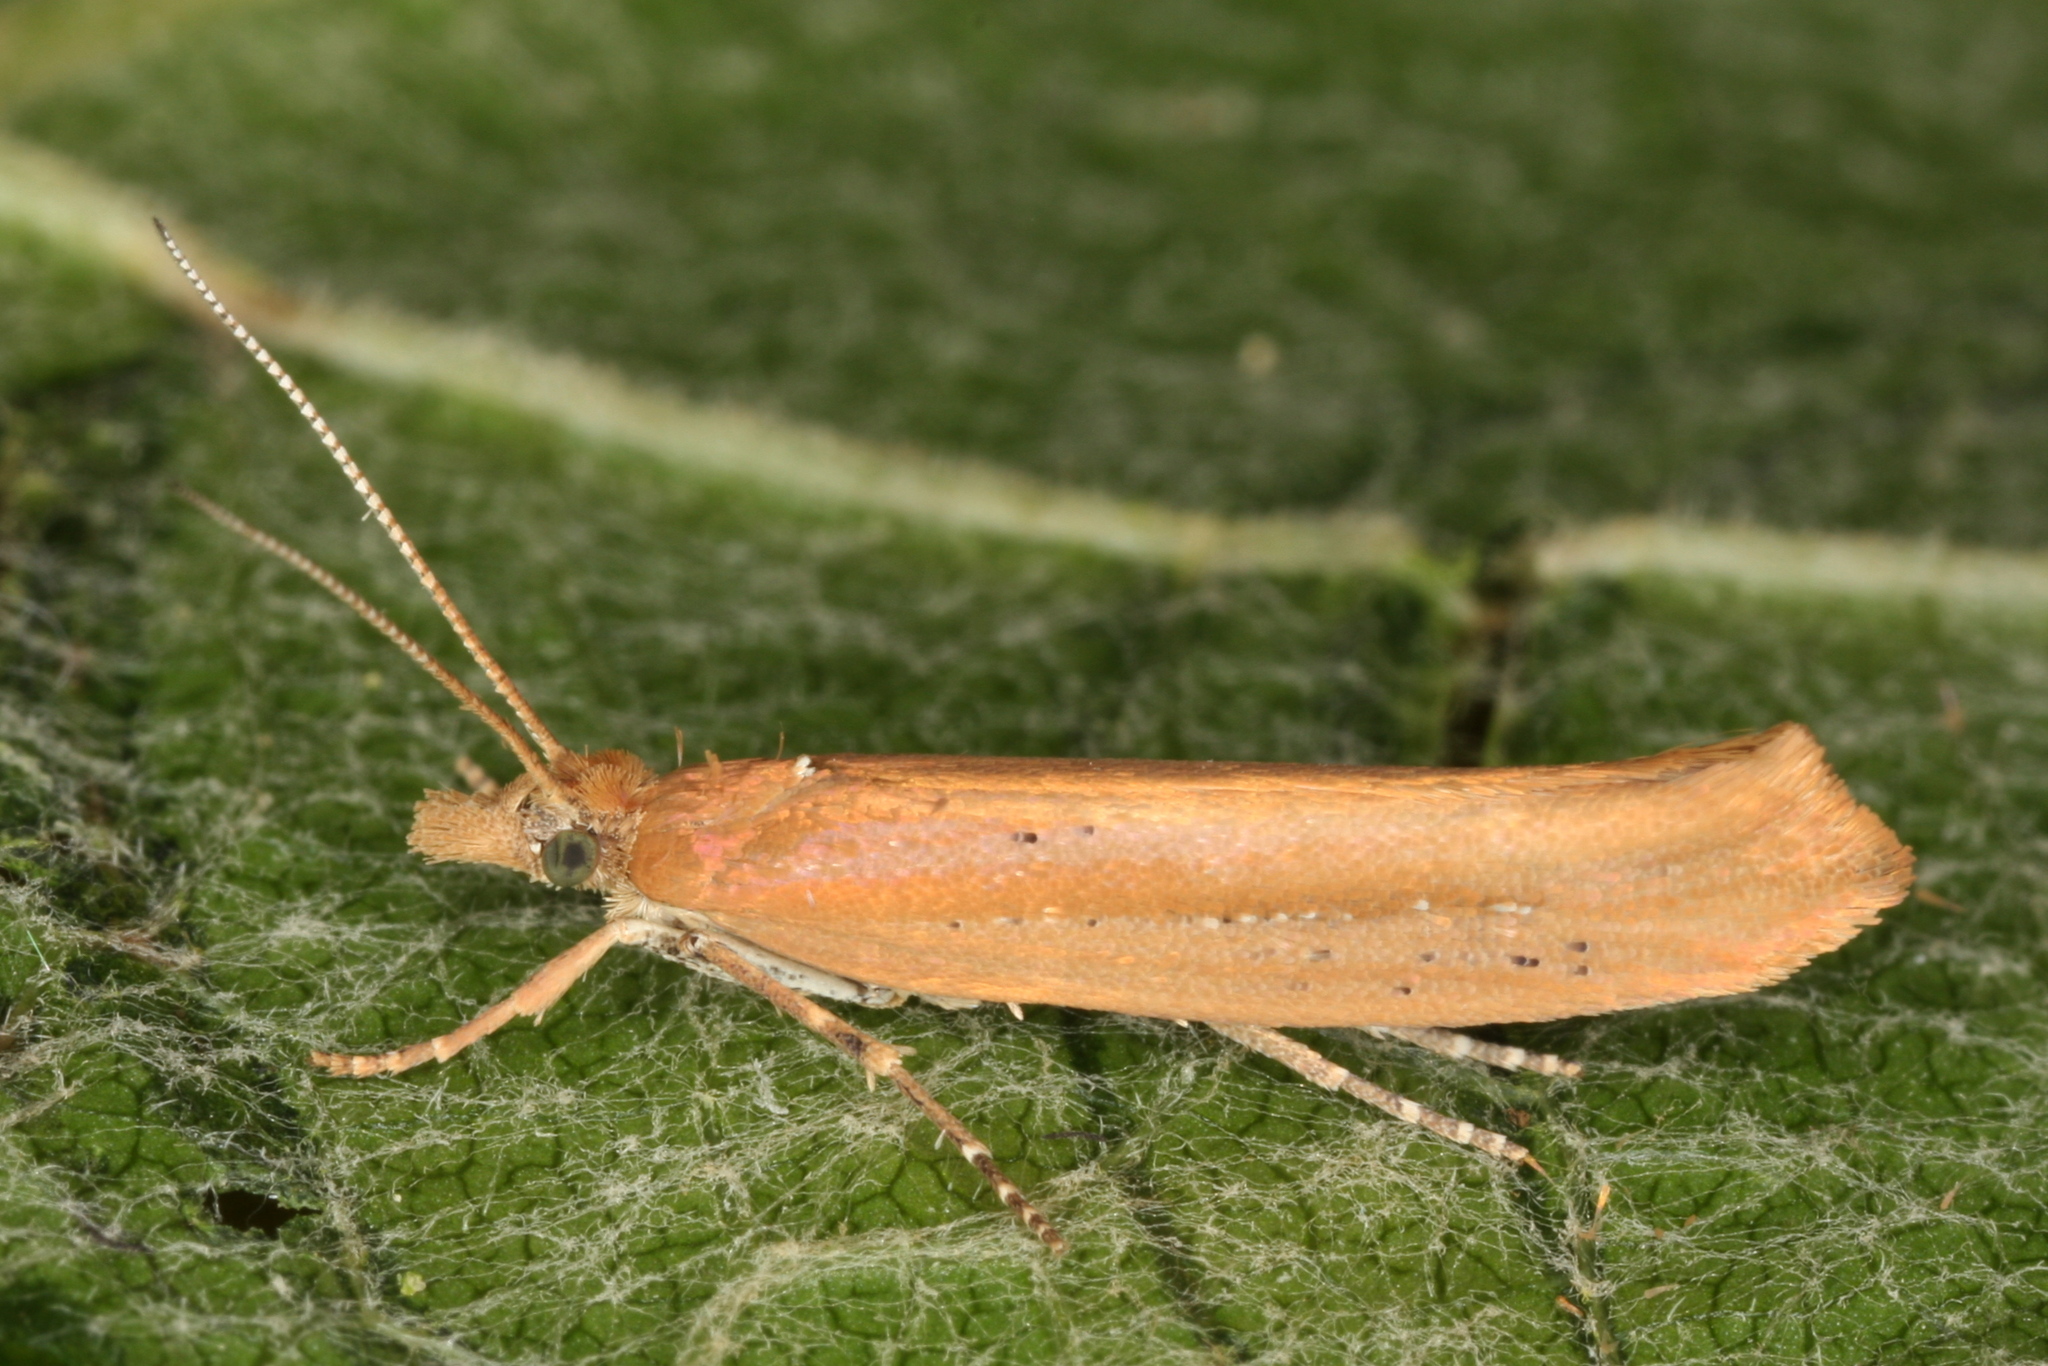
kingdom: Animalia
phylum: Arthropoda
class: Insecta
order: Lepidoptera
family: Plutellidae
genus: Ypsolophus
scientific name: Ypsolophus ustella
